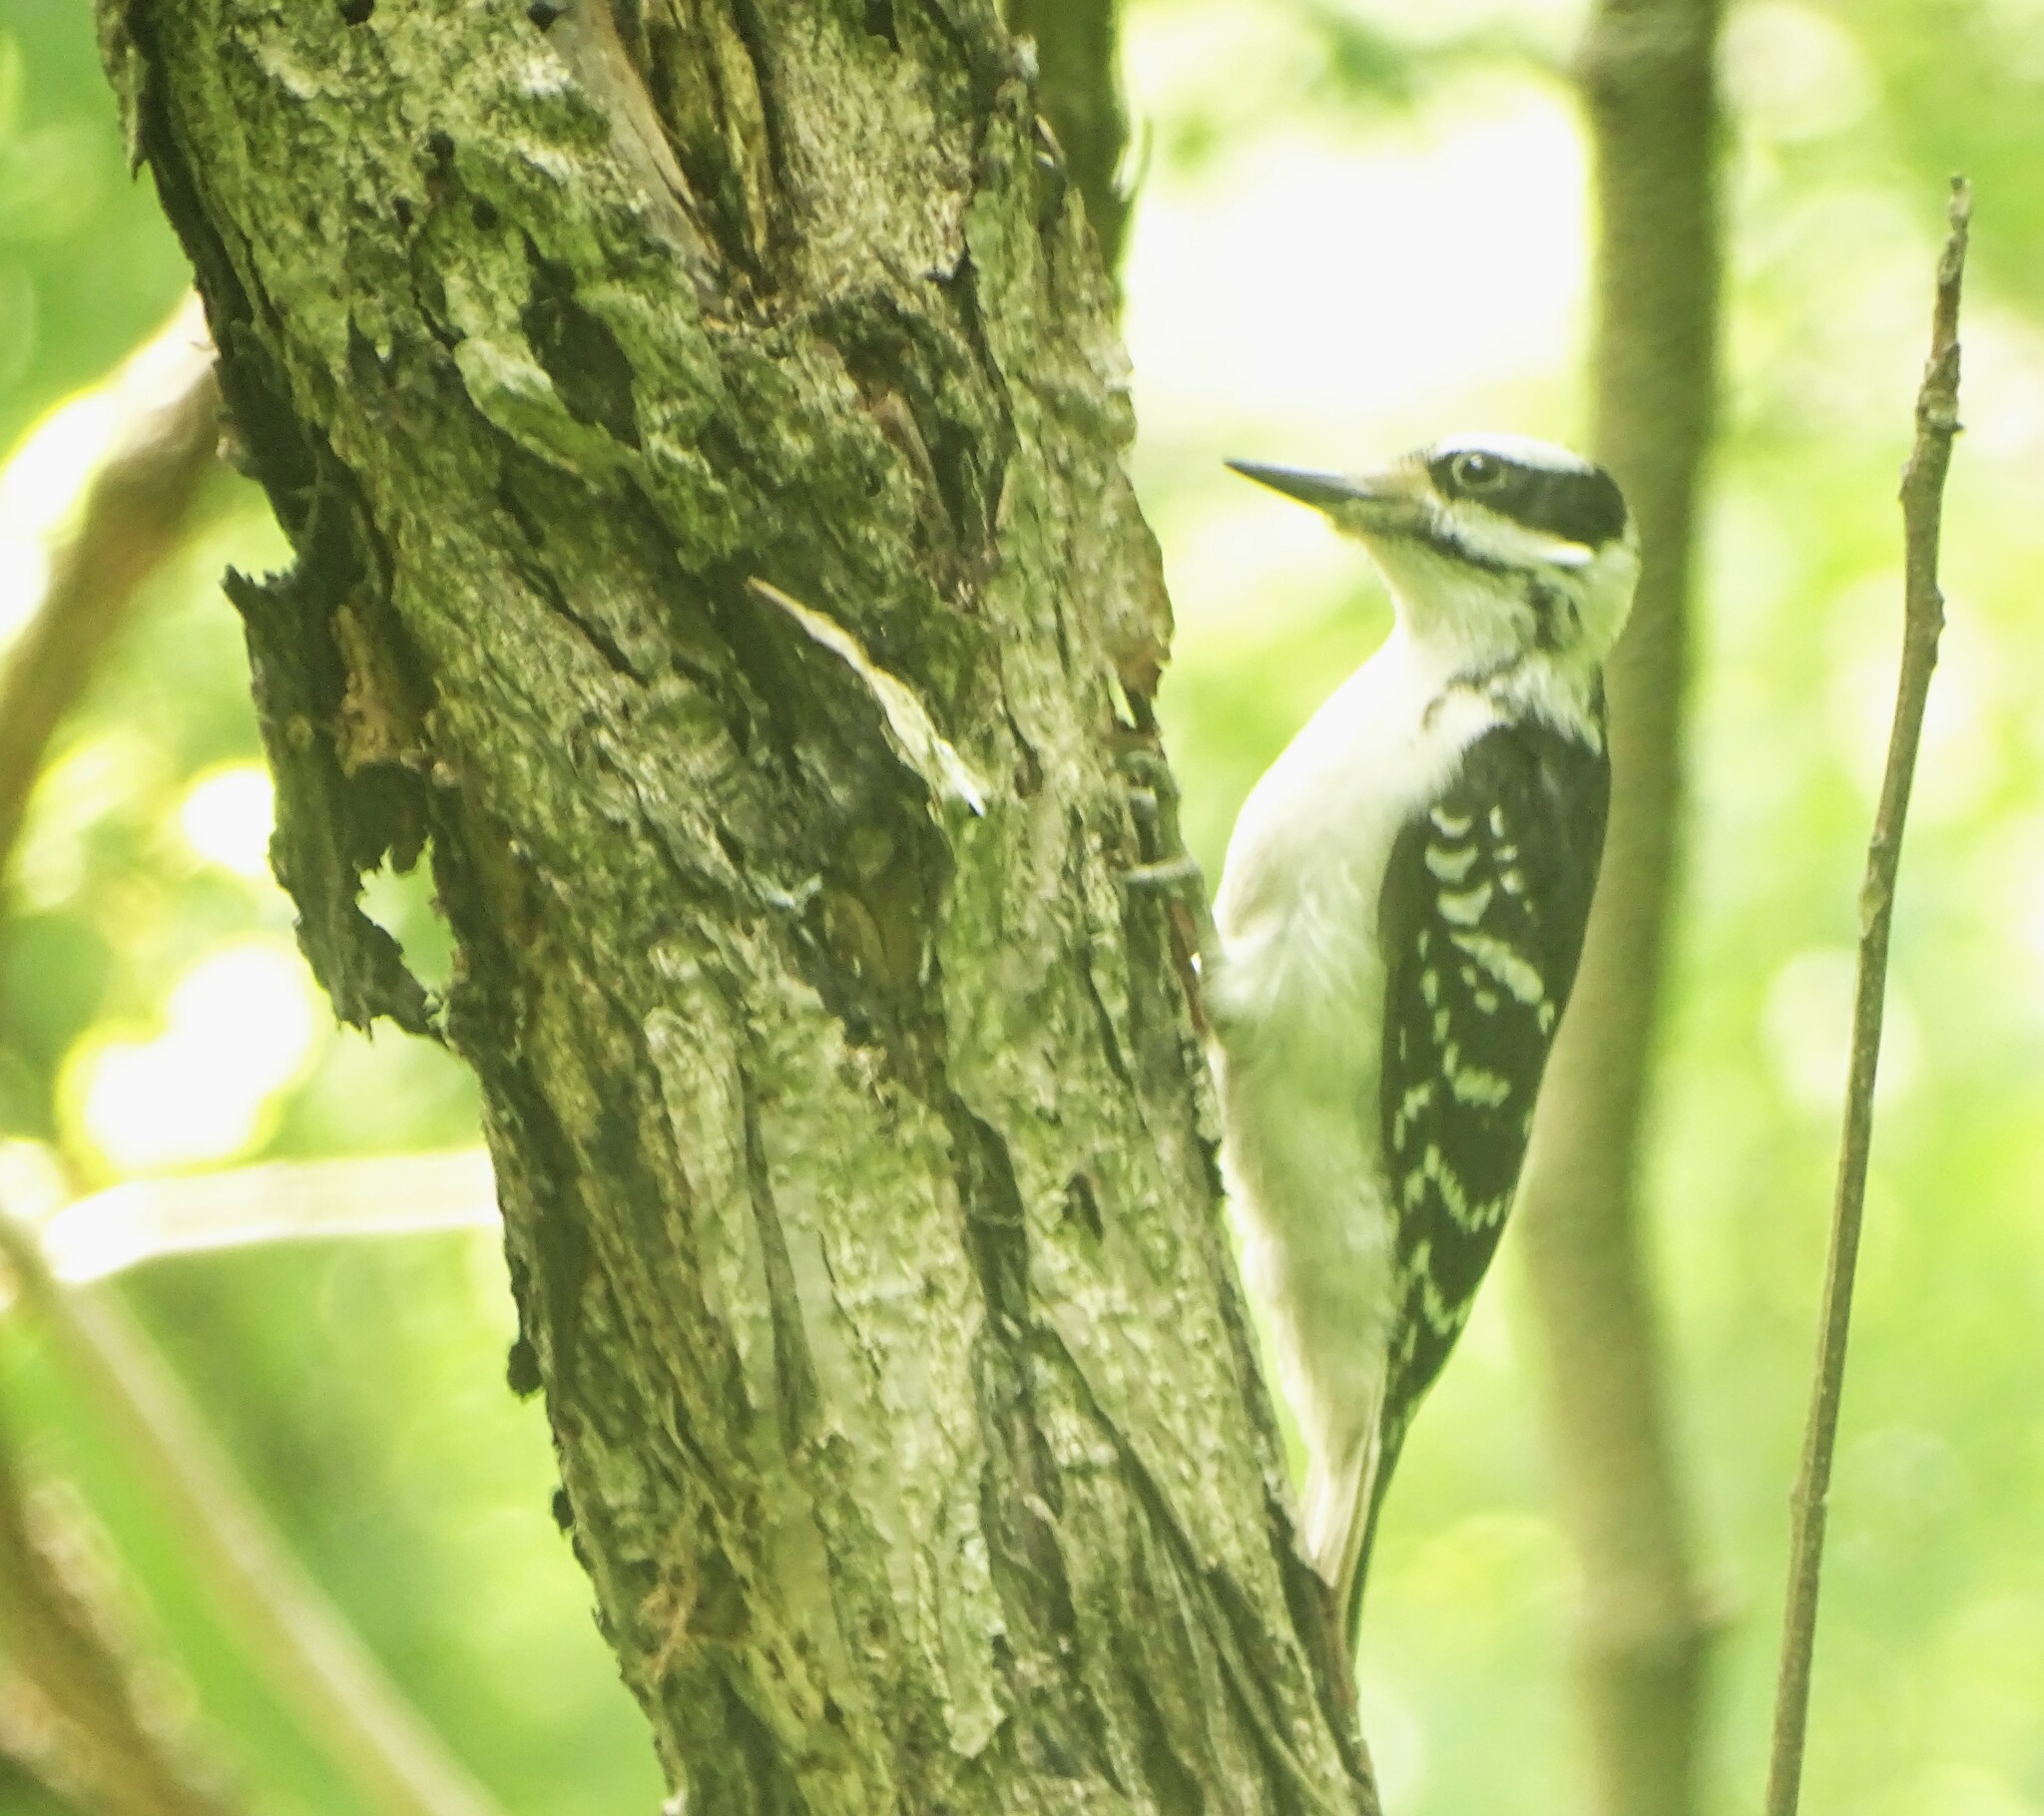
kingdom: Animalia
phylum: Chordata
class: Aves
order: Piciformes
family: Picidae
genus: Leuconotopicus
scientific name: Leuconotopicus villosus
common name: Hairy woodpecker
